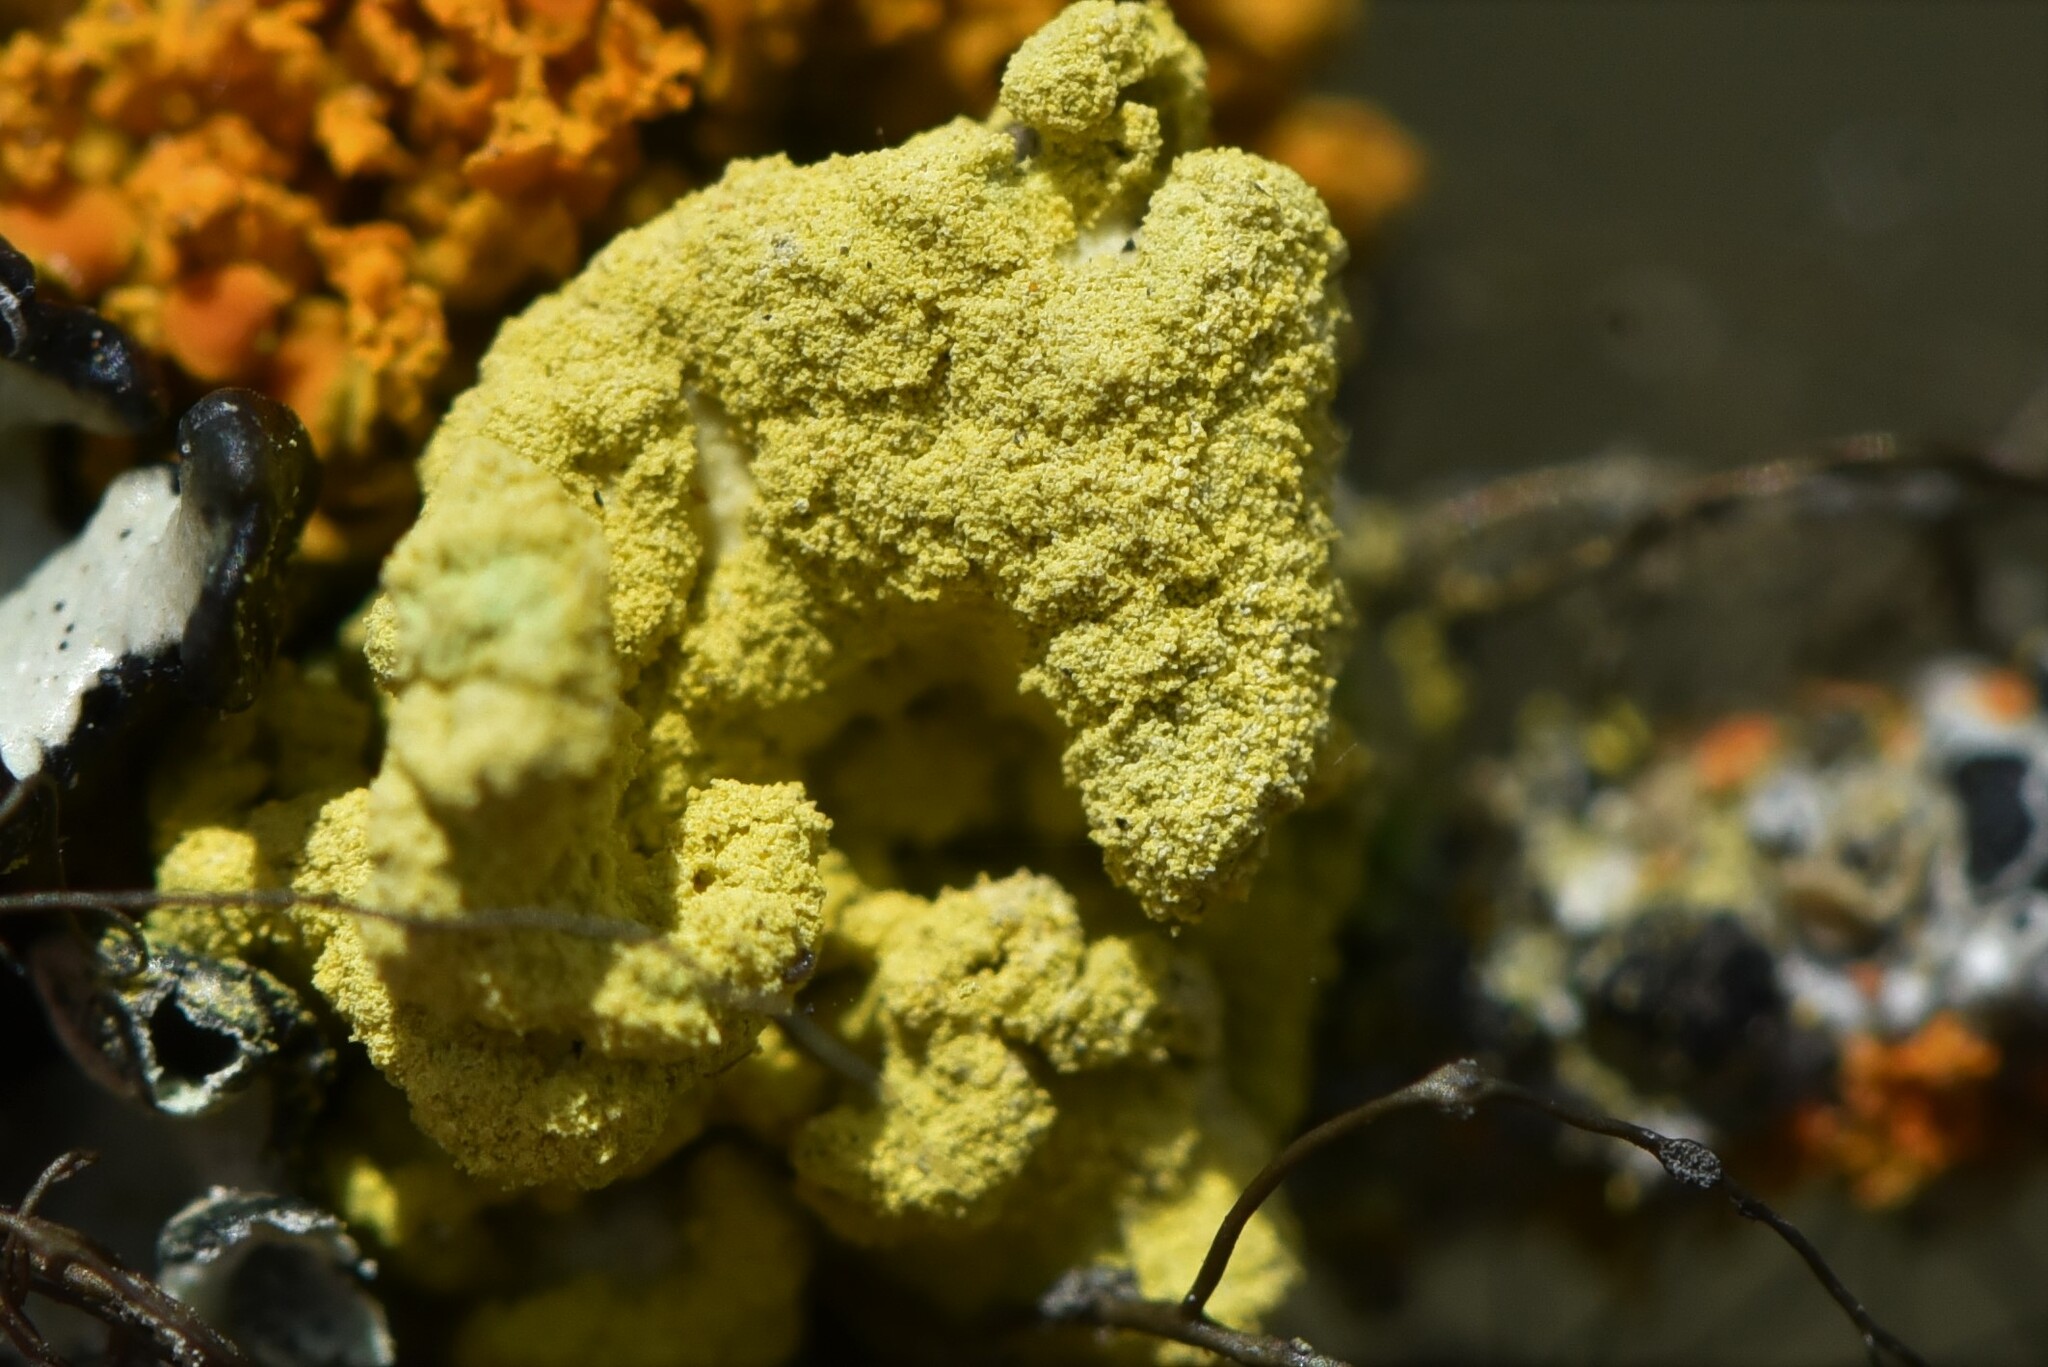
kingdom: Fungi
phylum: Ascomycota
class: Lecanoromycetes
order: Lecanorales
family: Parmeliaceae
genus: Vulpicida
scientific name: Vulpicida pinastri
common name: Powdered sunshine lichen
